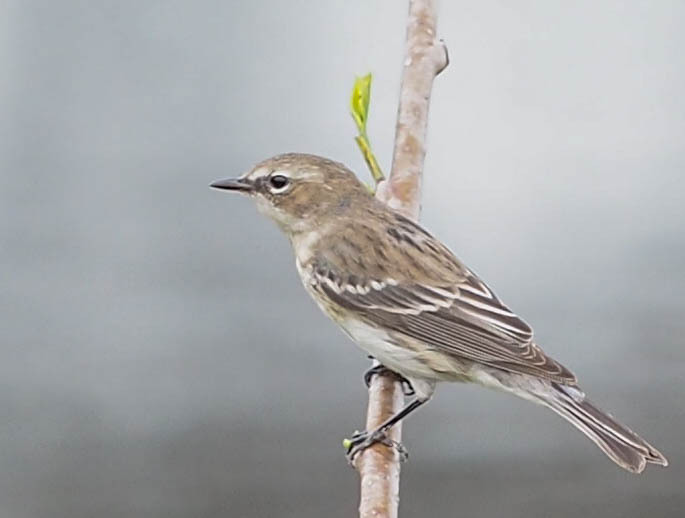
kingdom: Animalia
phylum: Chordata
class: Aves
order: Passeriformes
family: Parulidae
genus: Setophaga
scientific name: Setophaga coronata
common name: Myrtle warbler
